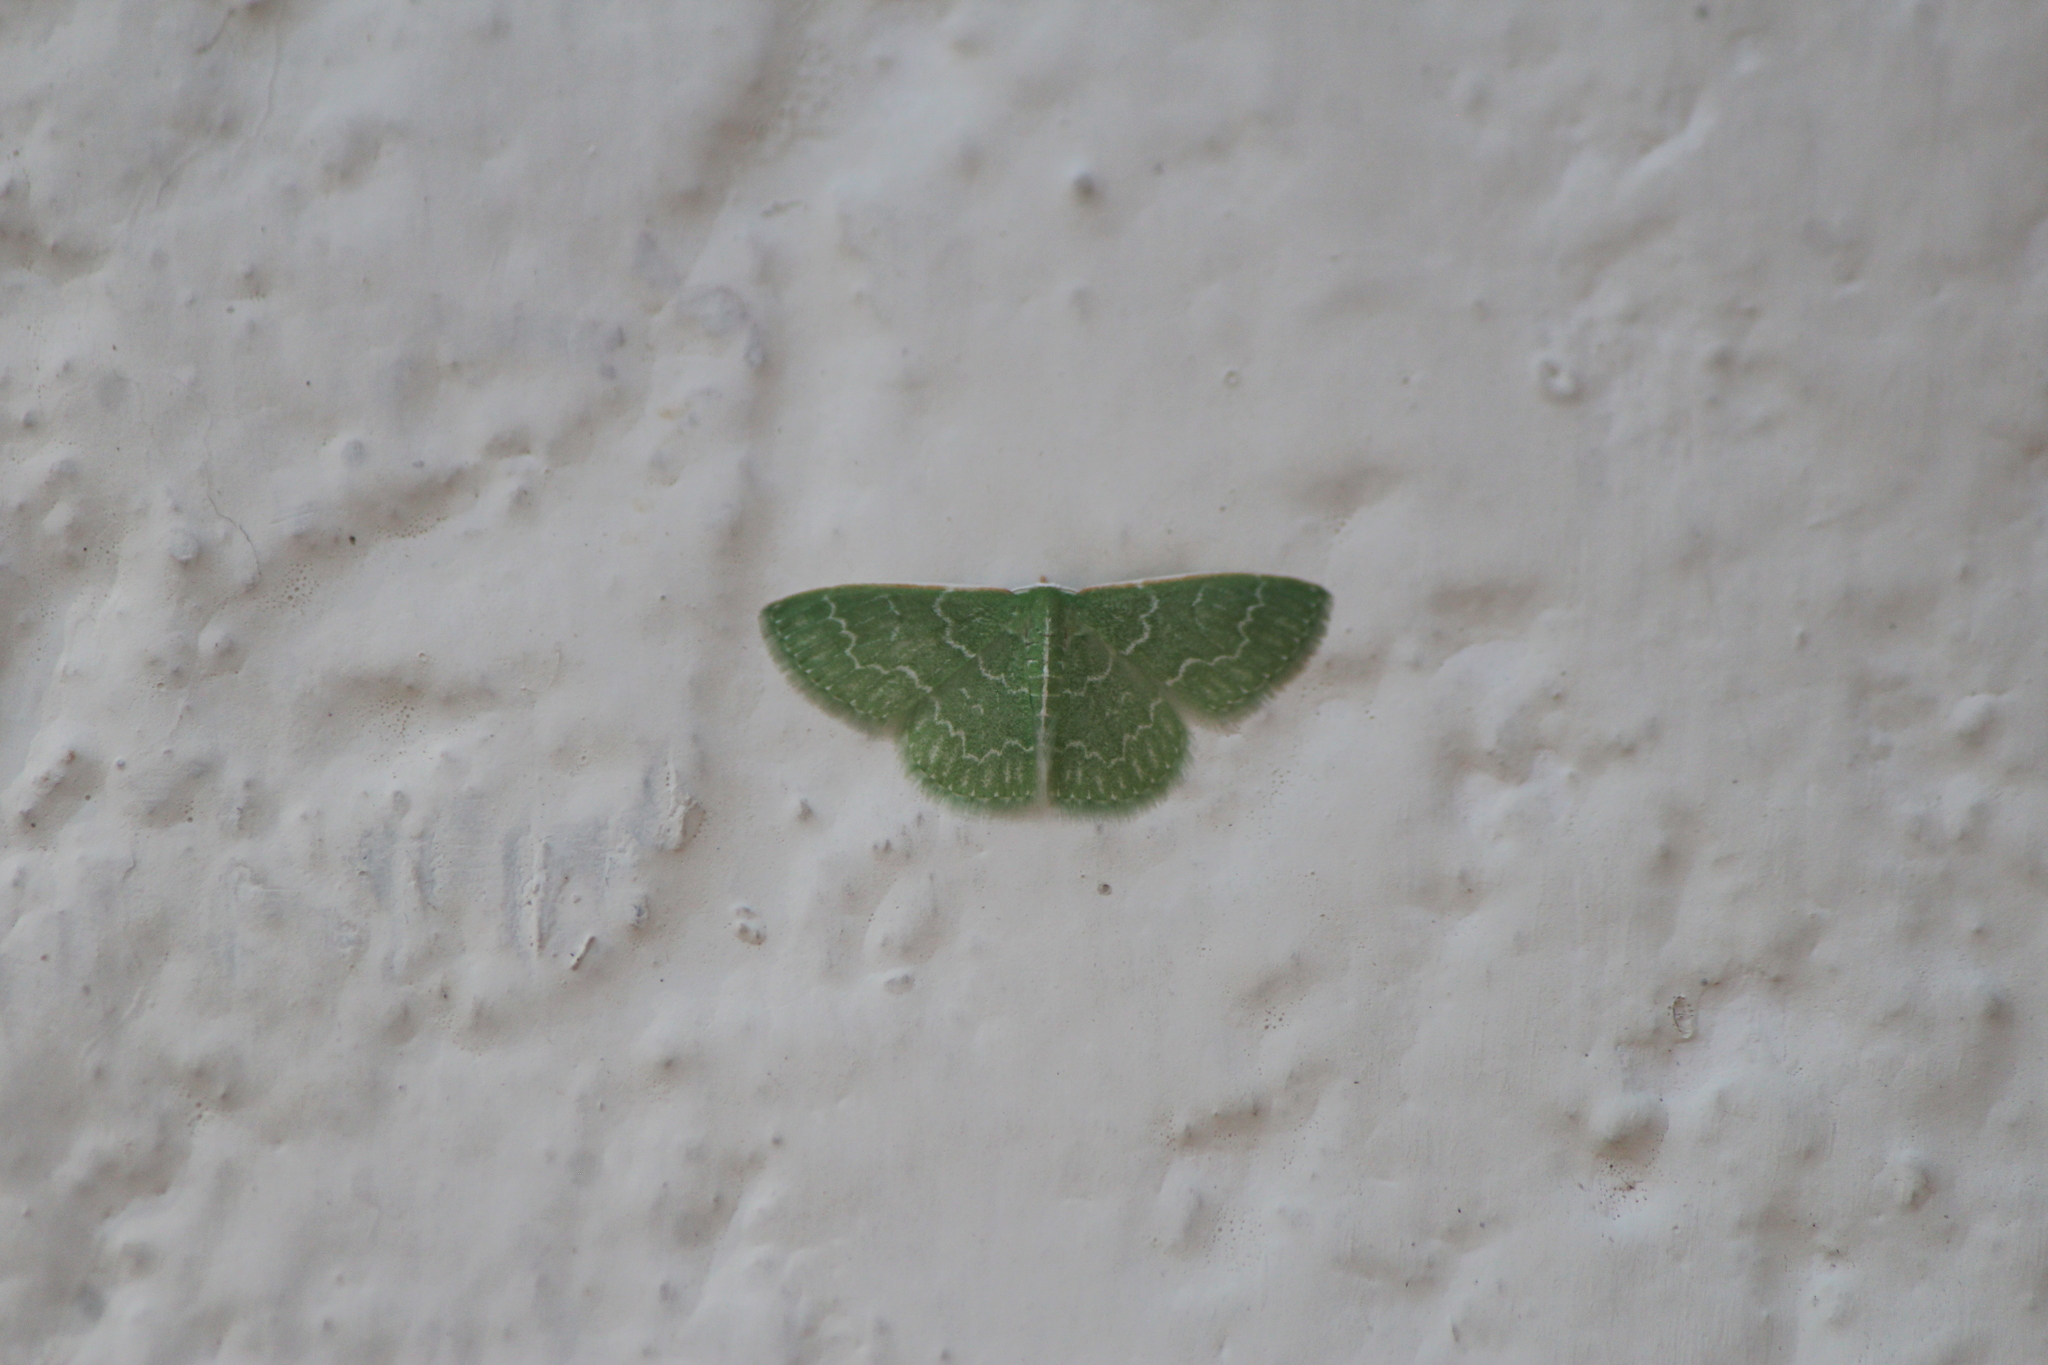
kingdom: Animalia
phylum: Arthropoda
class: Insecta
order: Lepidoptera
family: Geometridae
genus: Synchlora
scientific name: Synchlora frondaria
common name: Southern emerald
